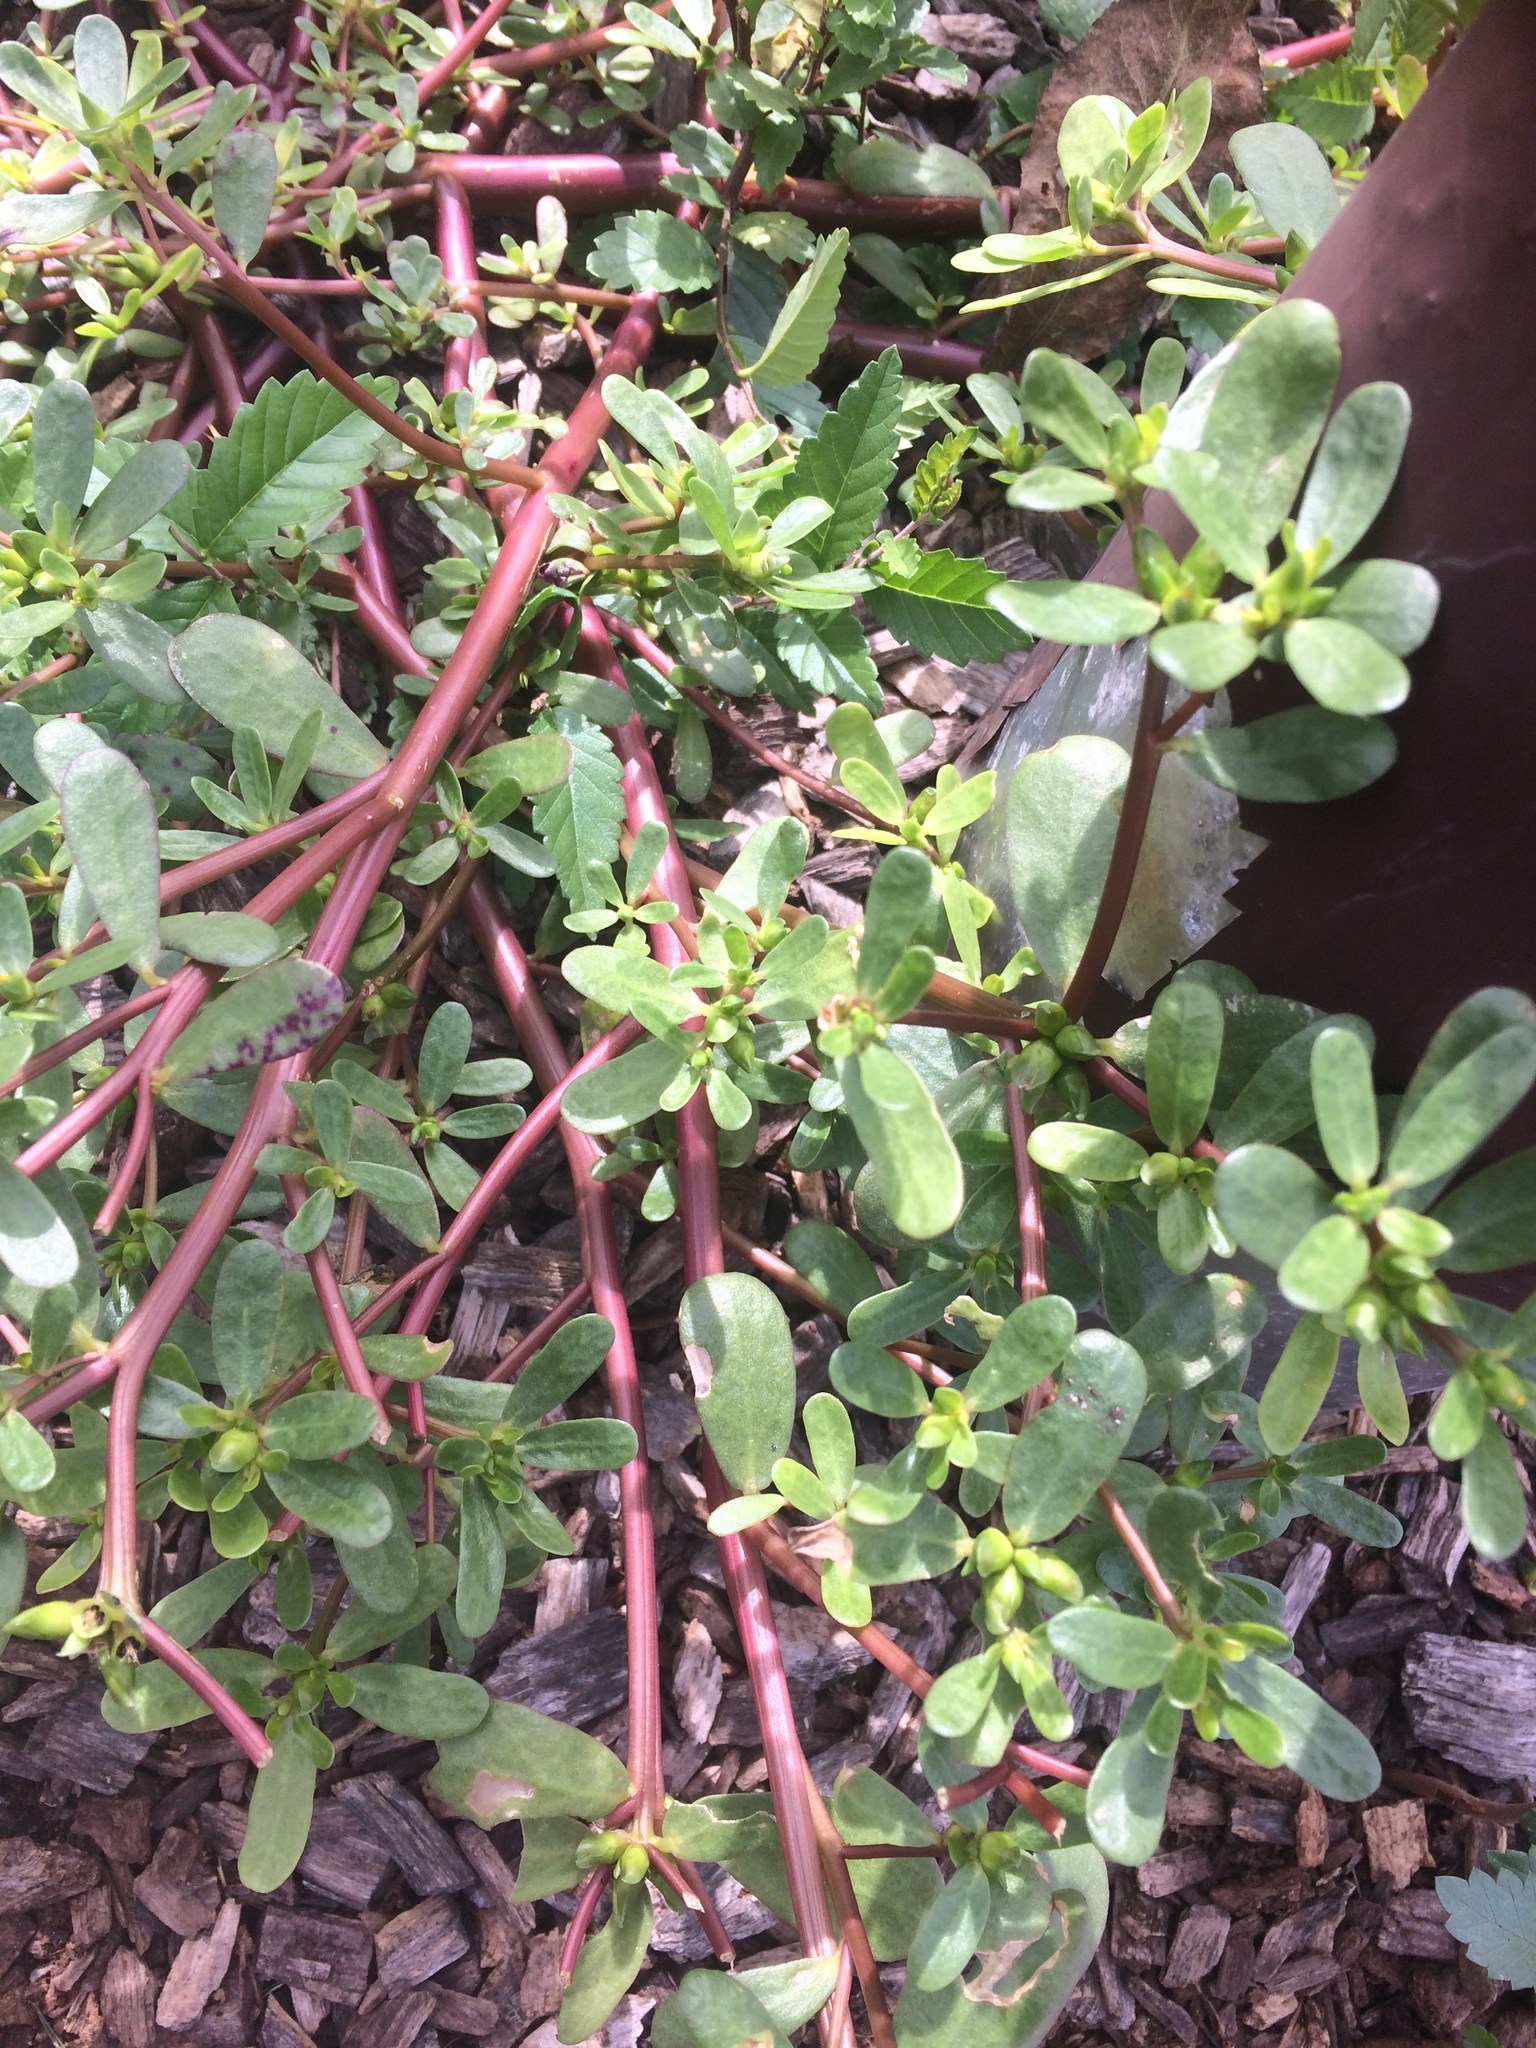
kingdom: Plantae
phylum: Tracheophyta
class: Magnoliopsida
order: Caryophyllales
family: Portulacaceae
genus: Portulaca
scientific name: Portulaca oleracea
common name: Common purslane
